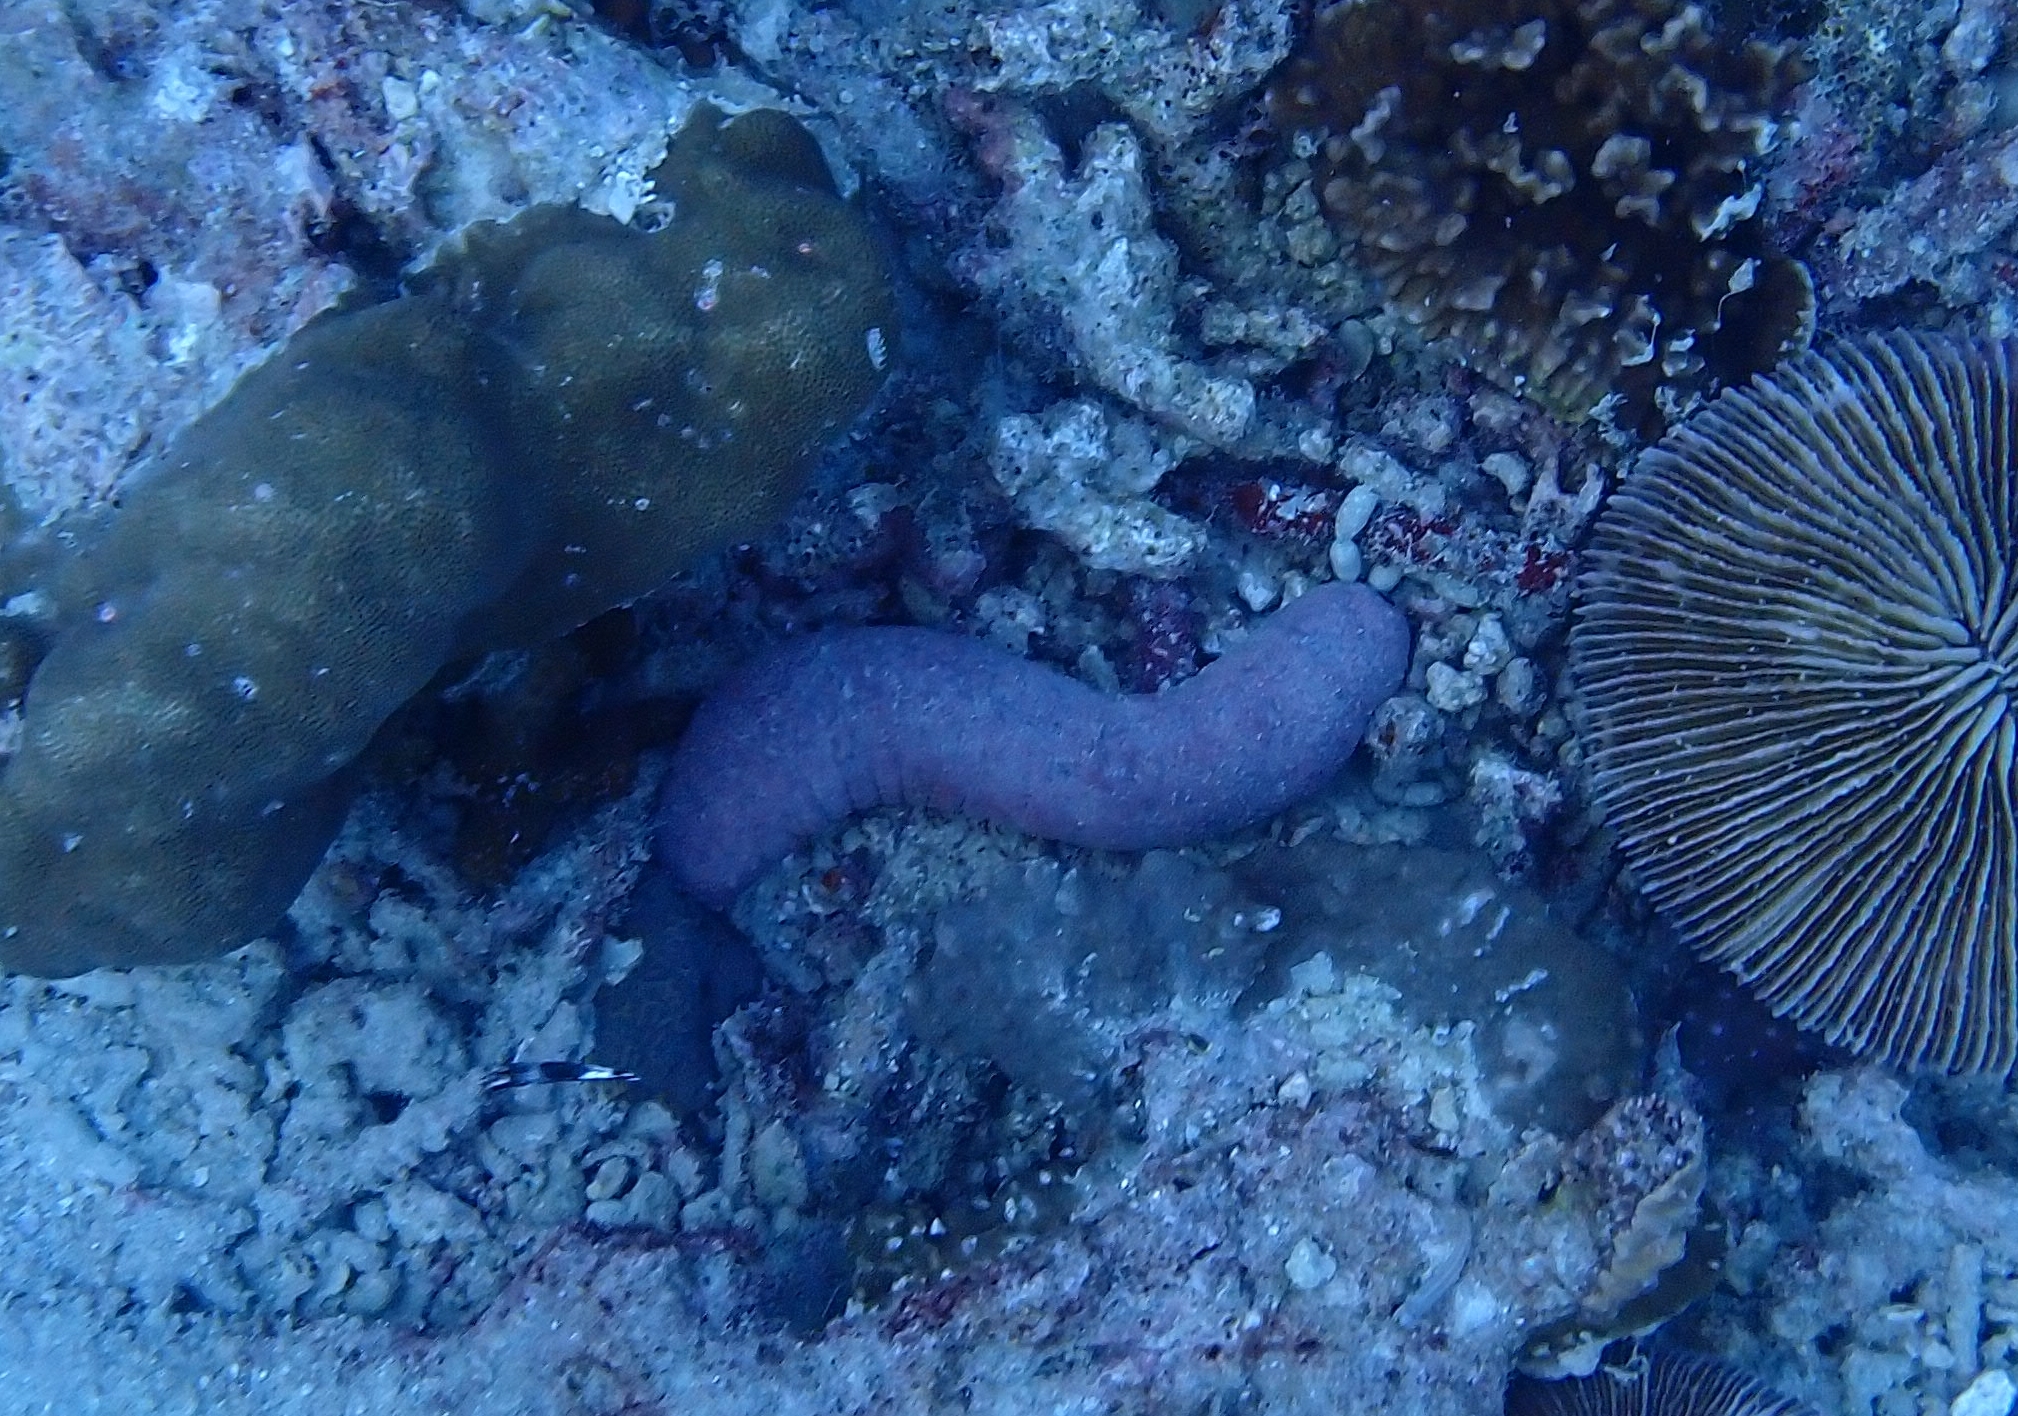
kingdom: Animalia
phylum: Echinodermata
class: Holothuroidea
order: Holothuriida
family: Holothuriidae
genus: Holothuria
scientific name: Holothuria edulis
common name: Pinkfish
